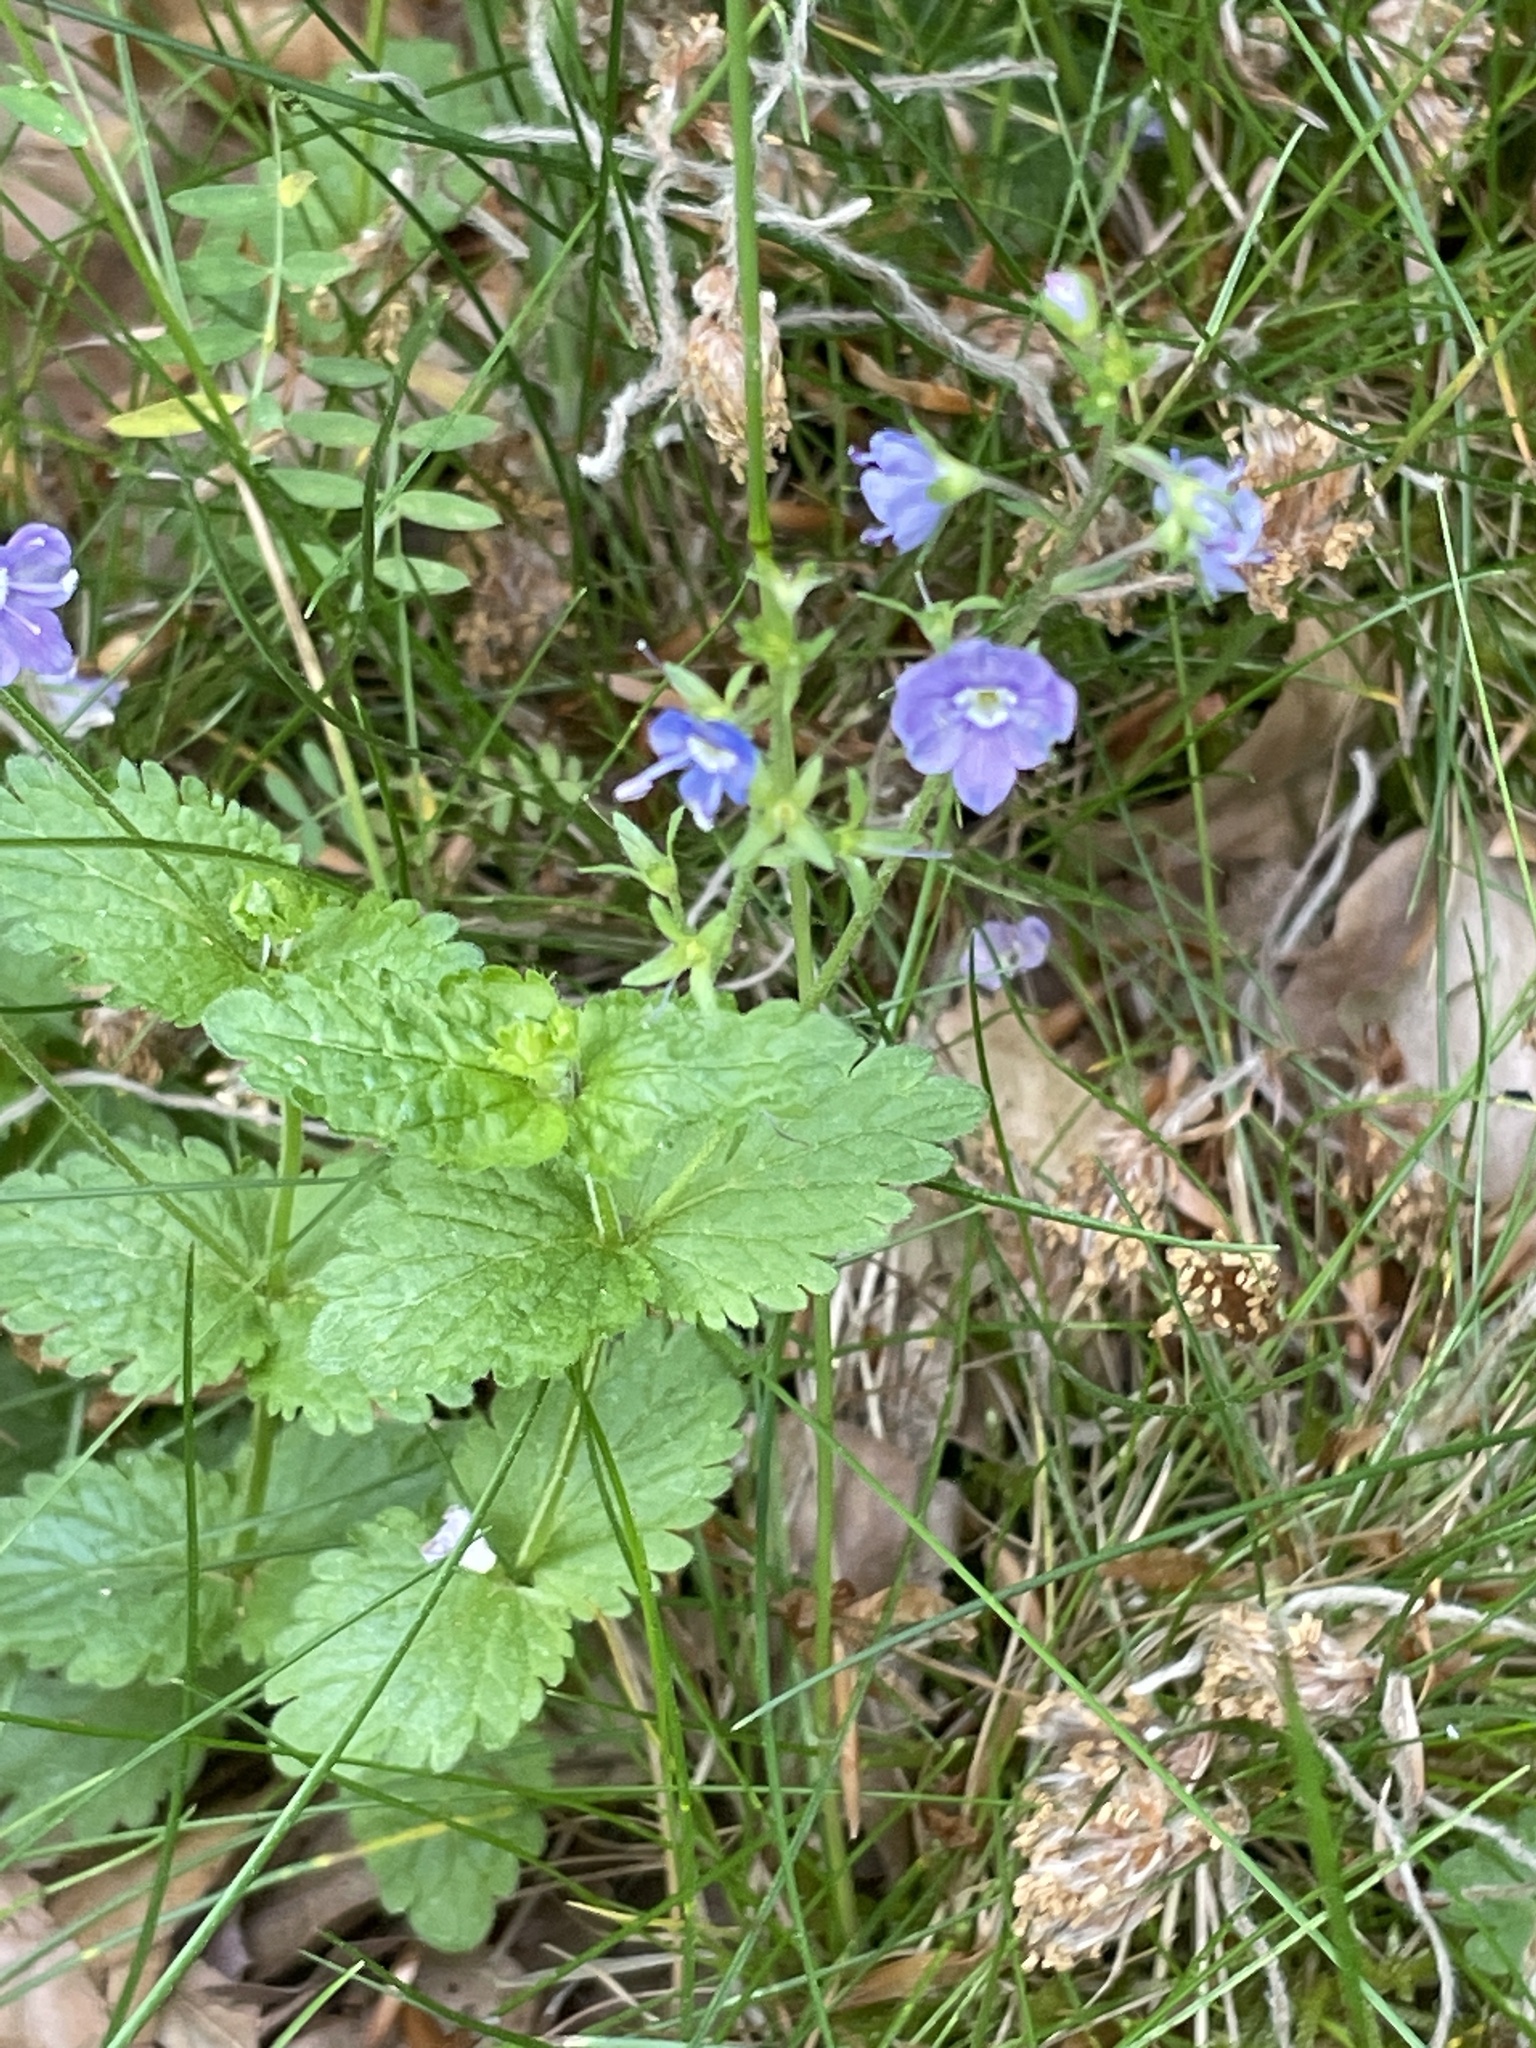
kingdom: Plantae
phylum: Tracheophyta
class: Magnoliopsida
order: Lamiales
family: Plantaginaceae
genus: Veronica
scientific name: Veronica chamaedrys
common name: Germander speedwell
